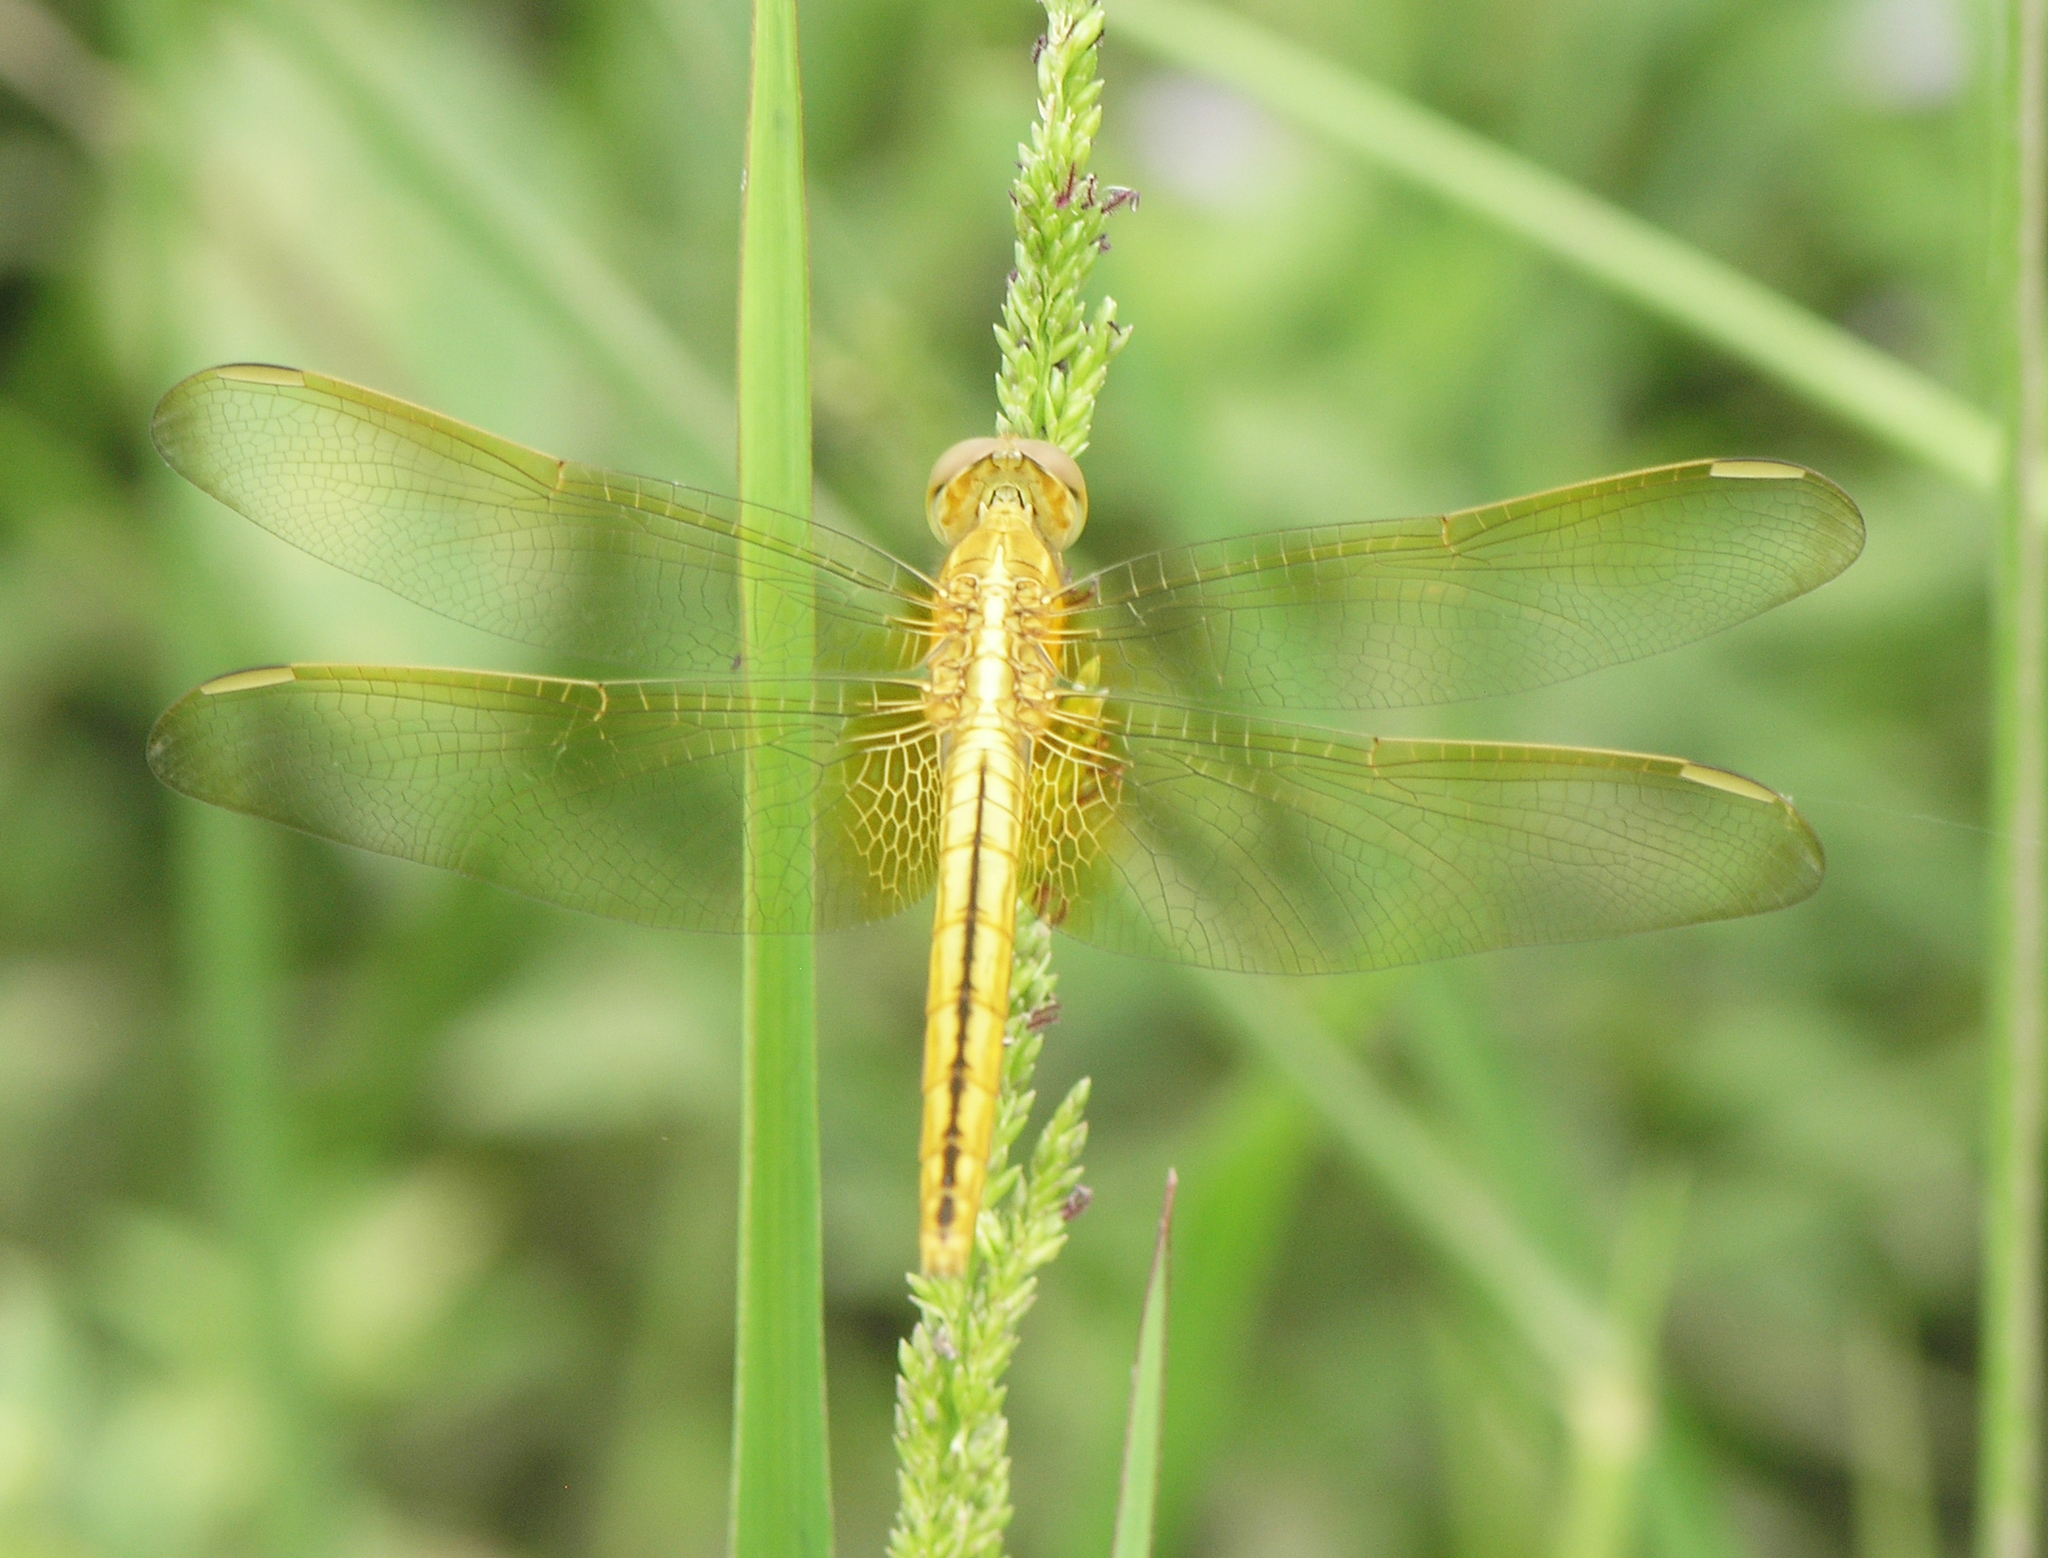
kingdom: Animalia
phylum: Arthropoda
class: Insecta
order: Odonata
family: Libellulidae
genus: Crocothemis
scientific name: Crocothemis servilia
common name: Scarlet skimmer
